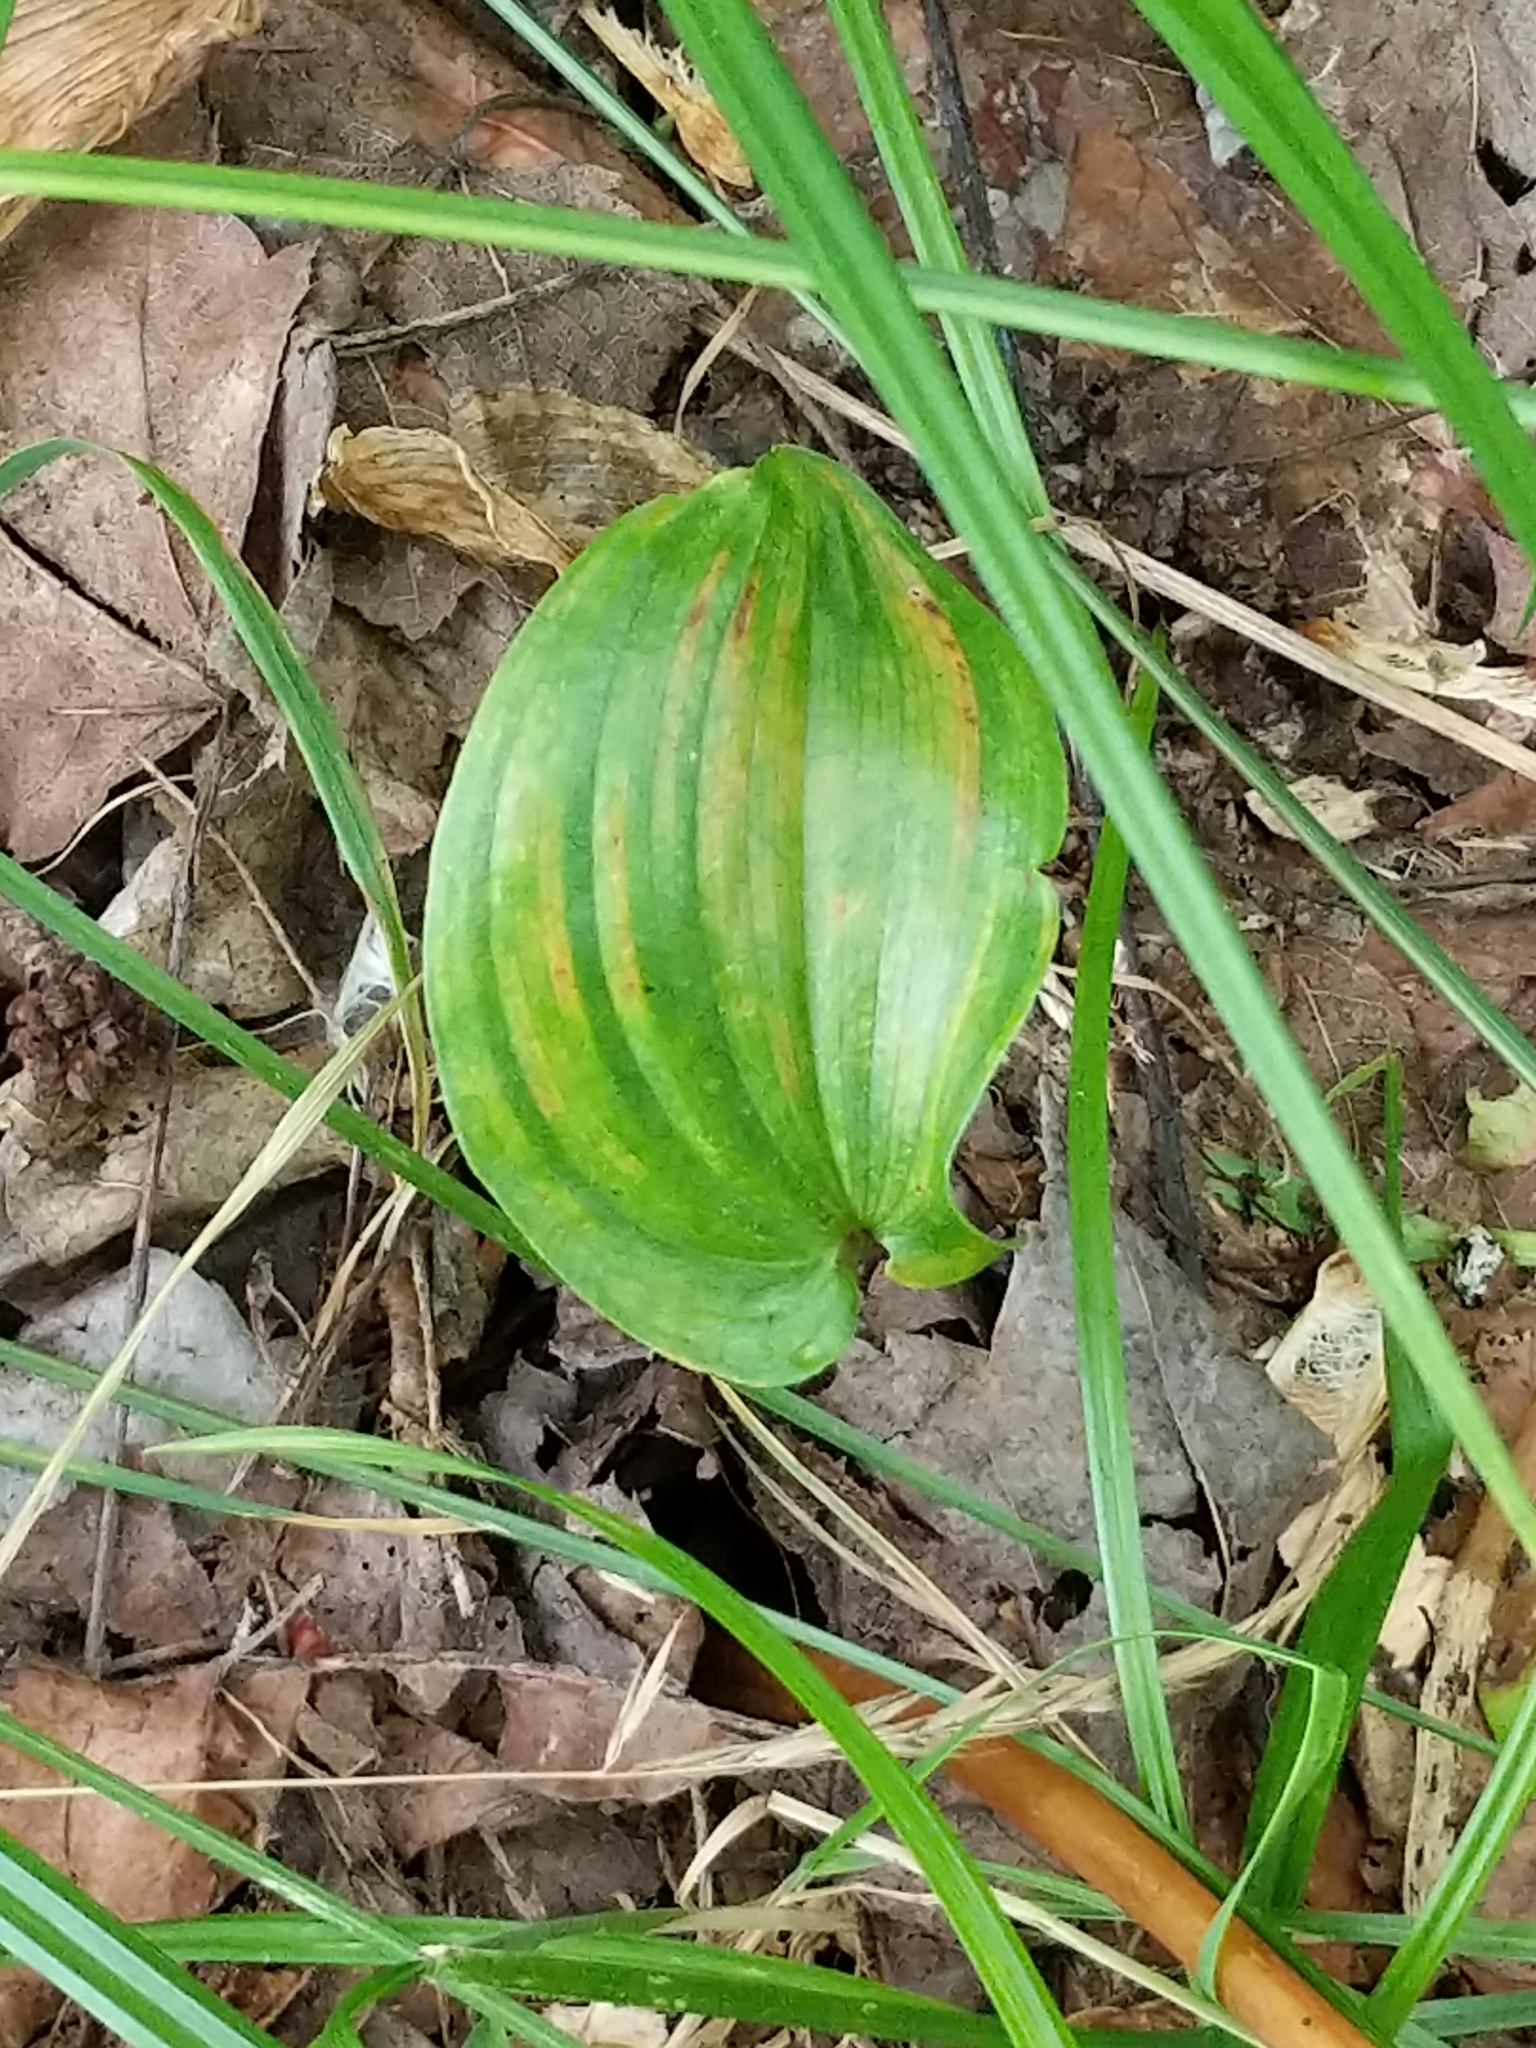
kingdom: Plantae
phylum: Tracheophyta
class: Liliopsida
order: Asparagales
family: Asparagaceae
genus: Maianthemum
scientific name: Maianthemum canadense
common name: False lily-of-the-valley
